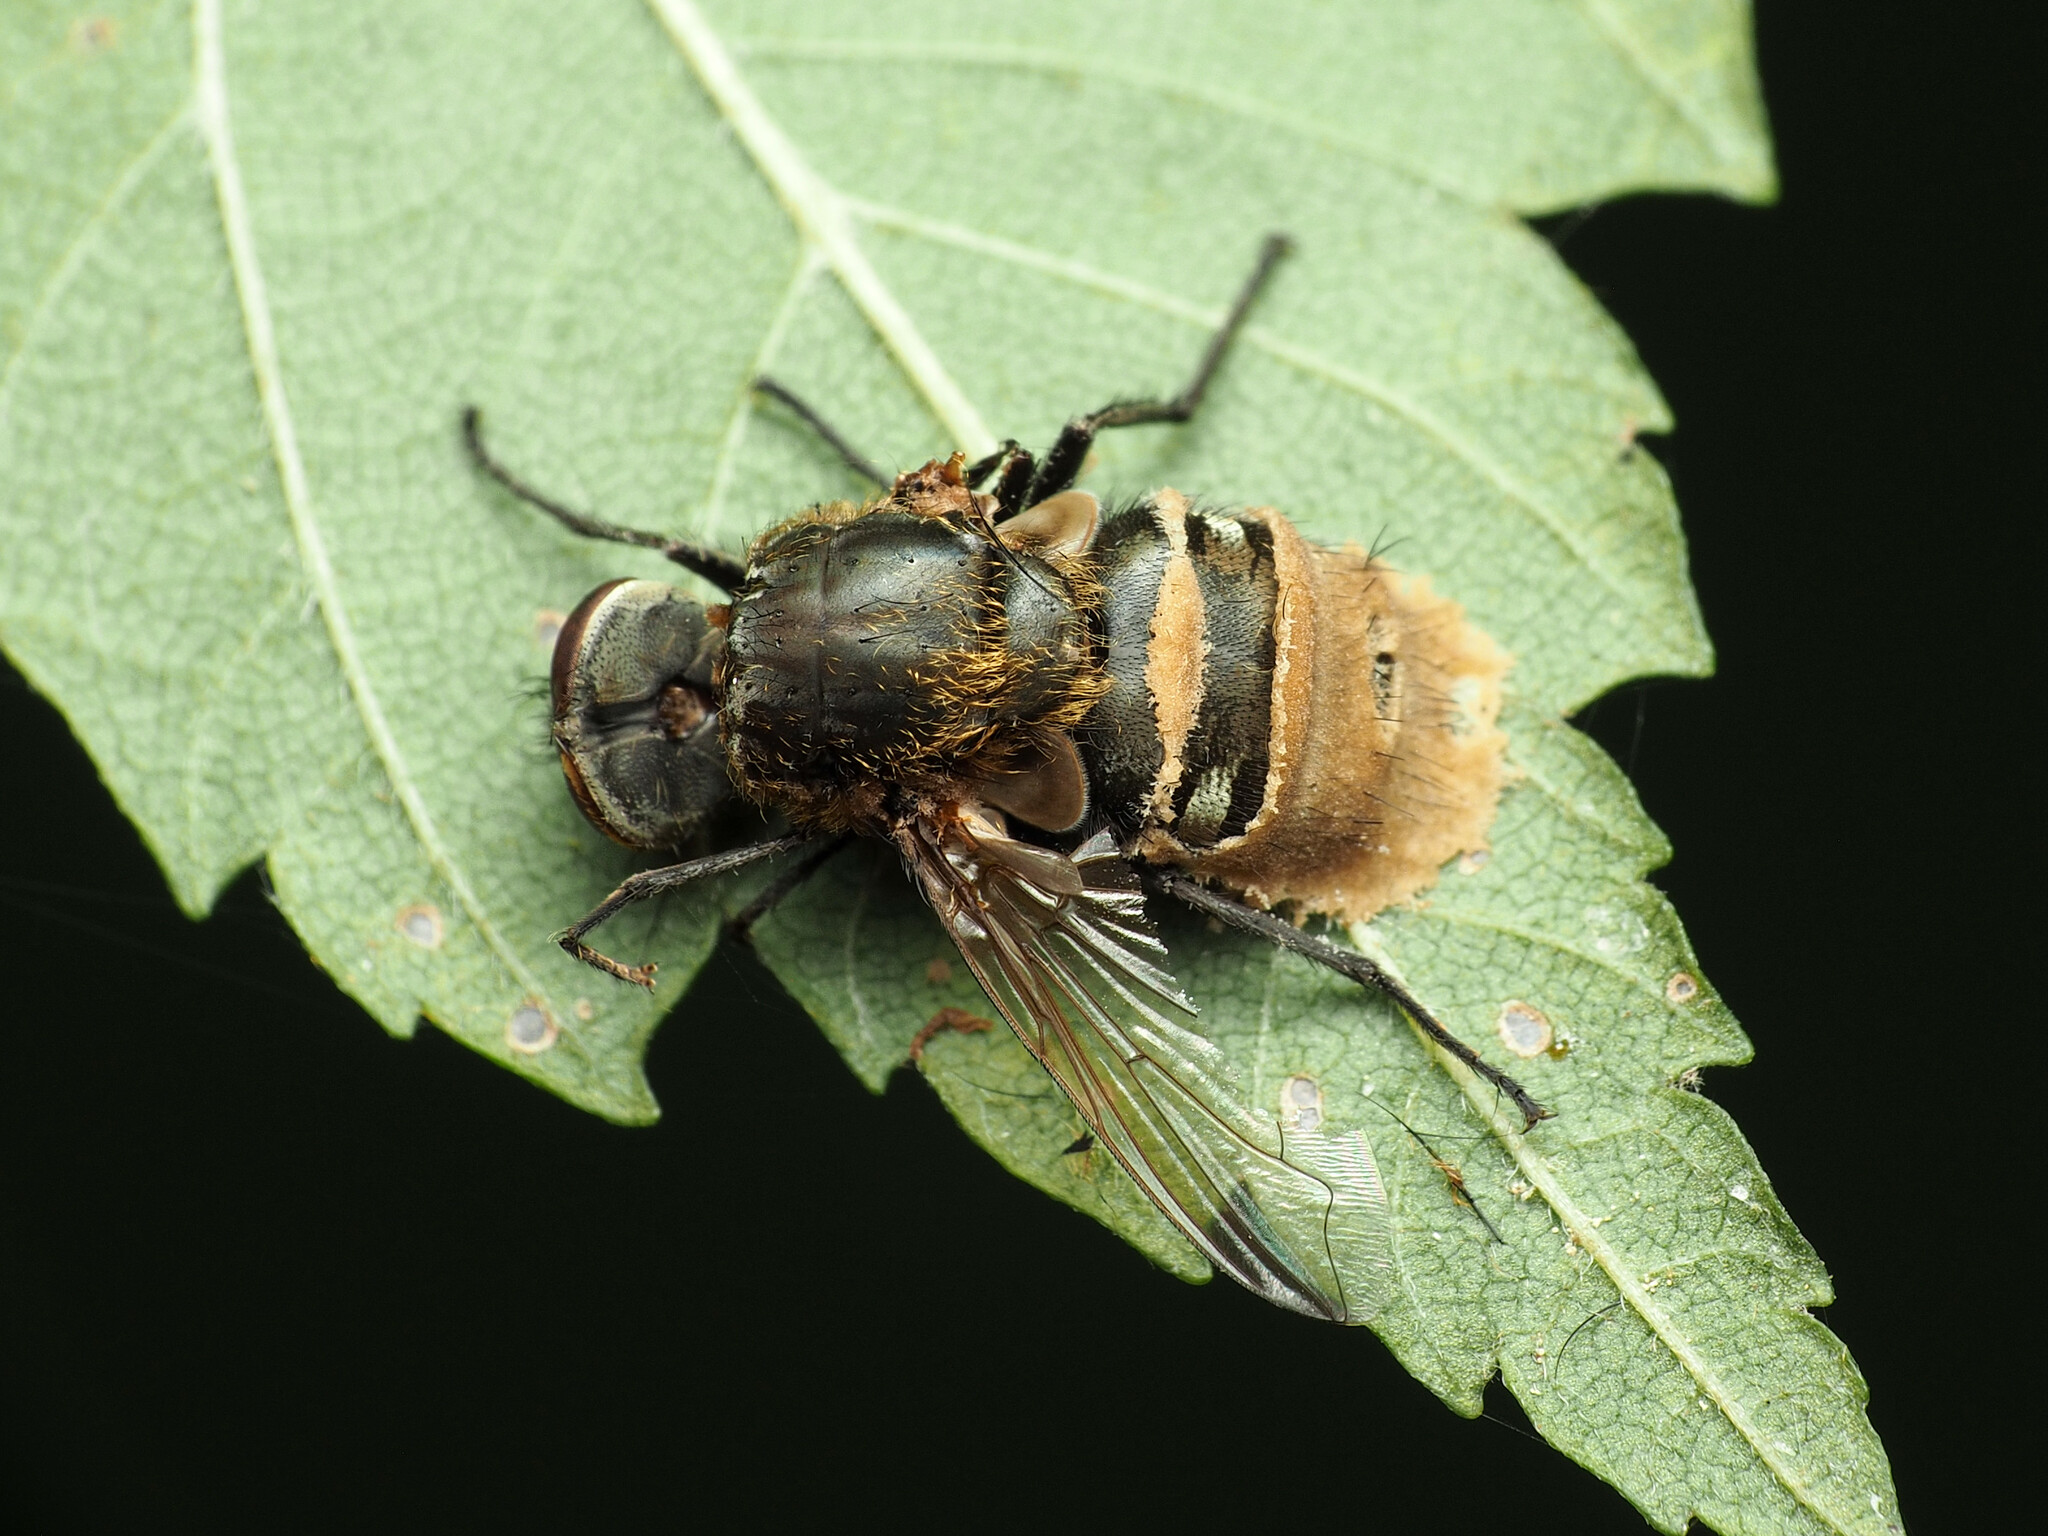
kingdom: Animalia
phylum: Arthropoda
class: Insecta
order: Diptera
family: Polleniidae
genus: Pollenia
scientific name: Pollenia
